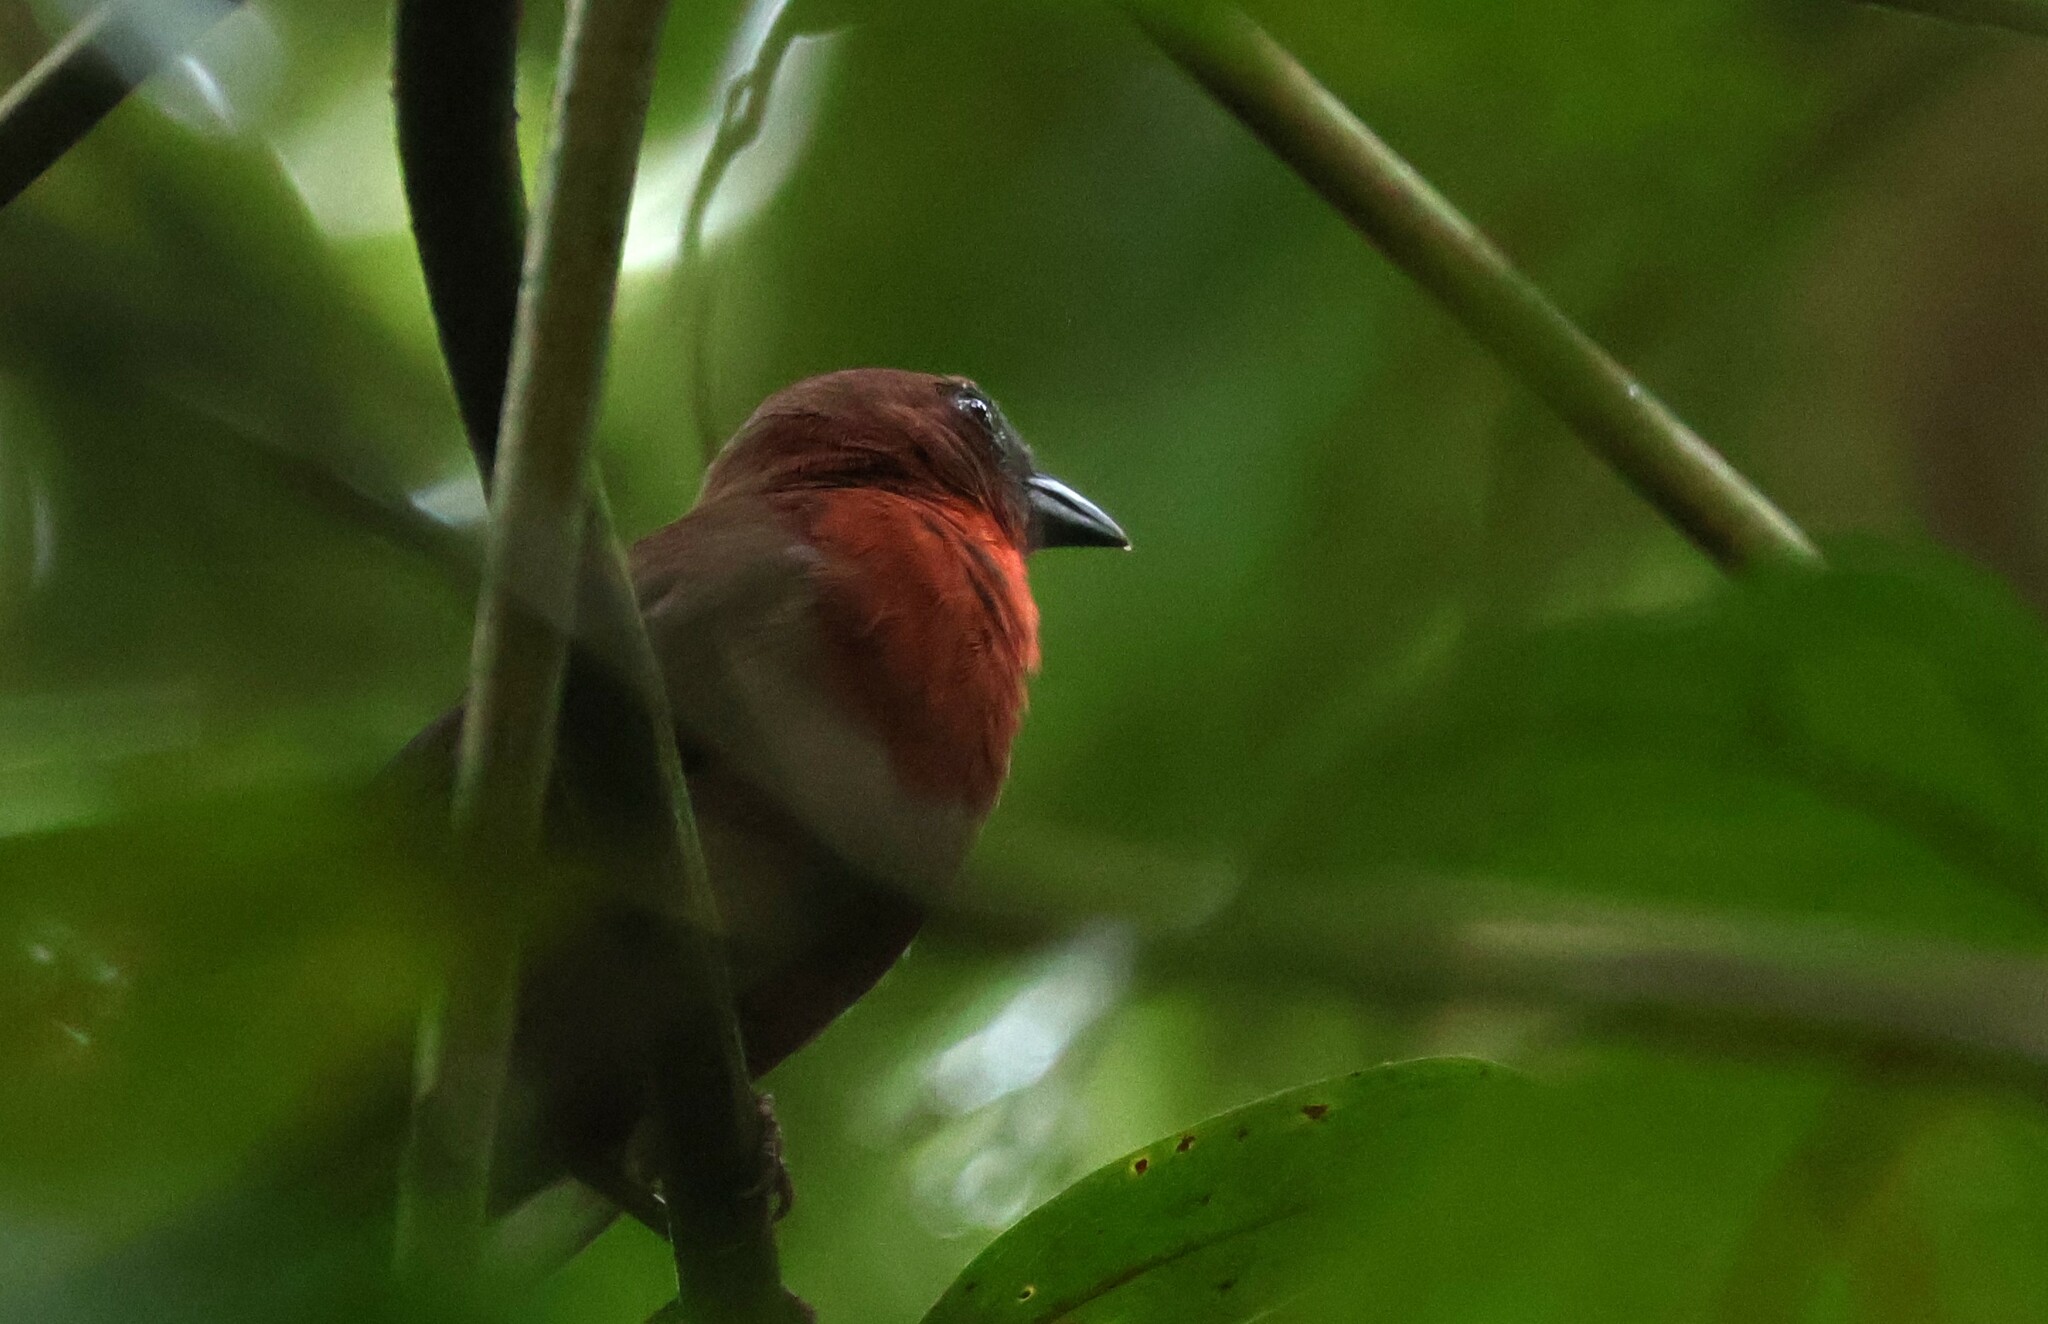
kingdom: Animalia
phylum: Chordata
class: Aves
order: Passeriformes
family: Cardinalidae
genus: Habia
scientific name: Habia fuscicauda
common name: Red-throated ant-tanager
